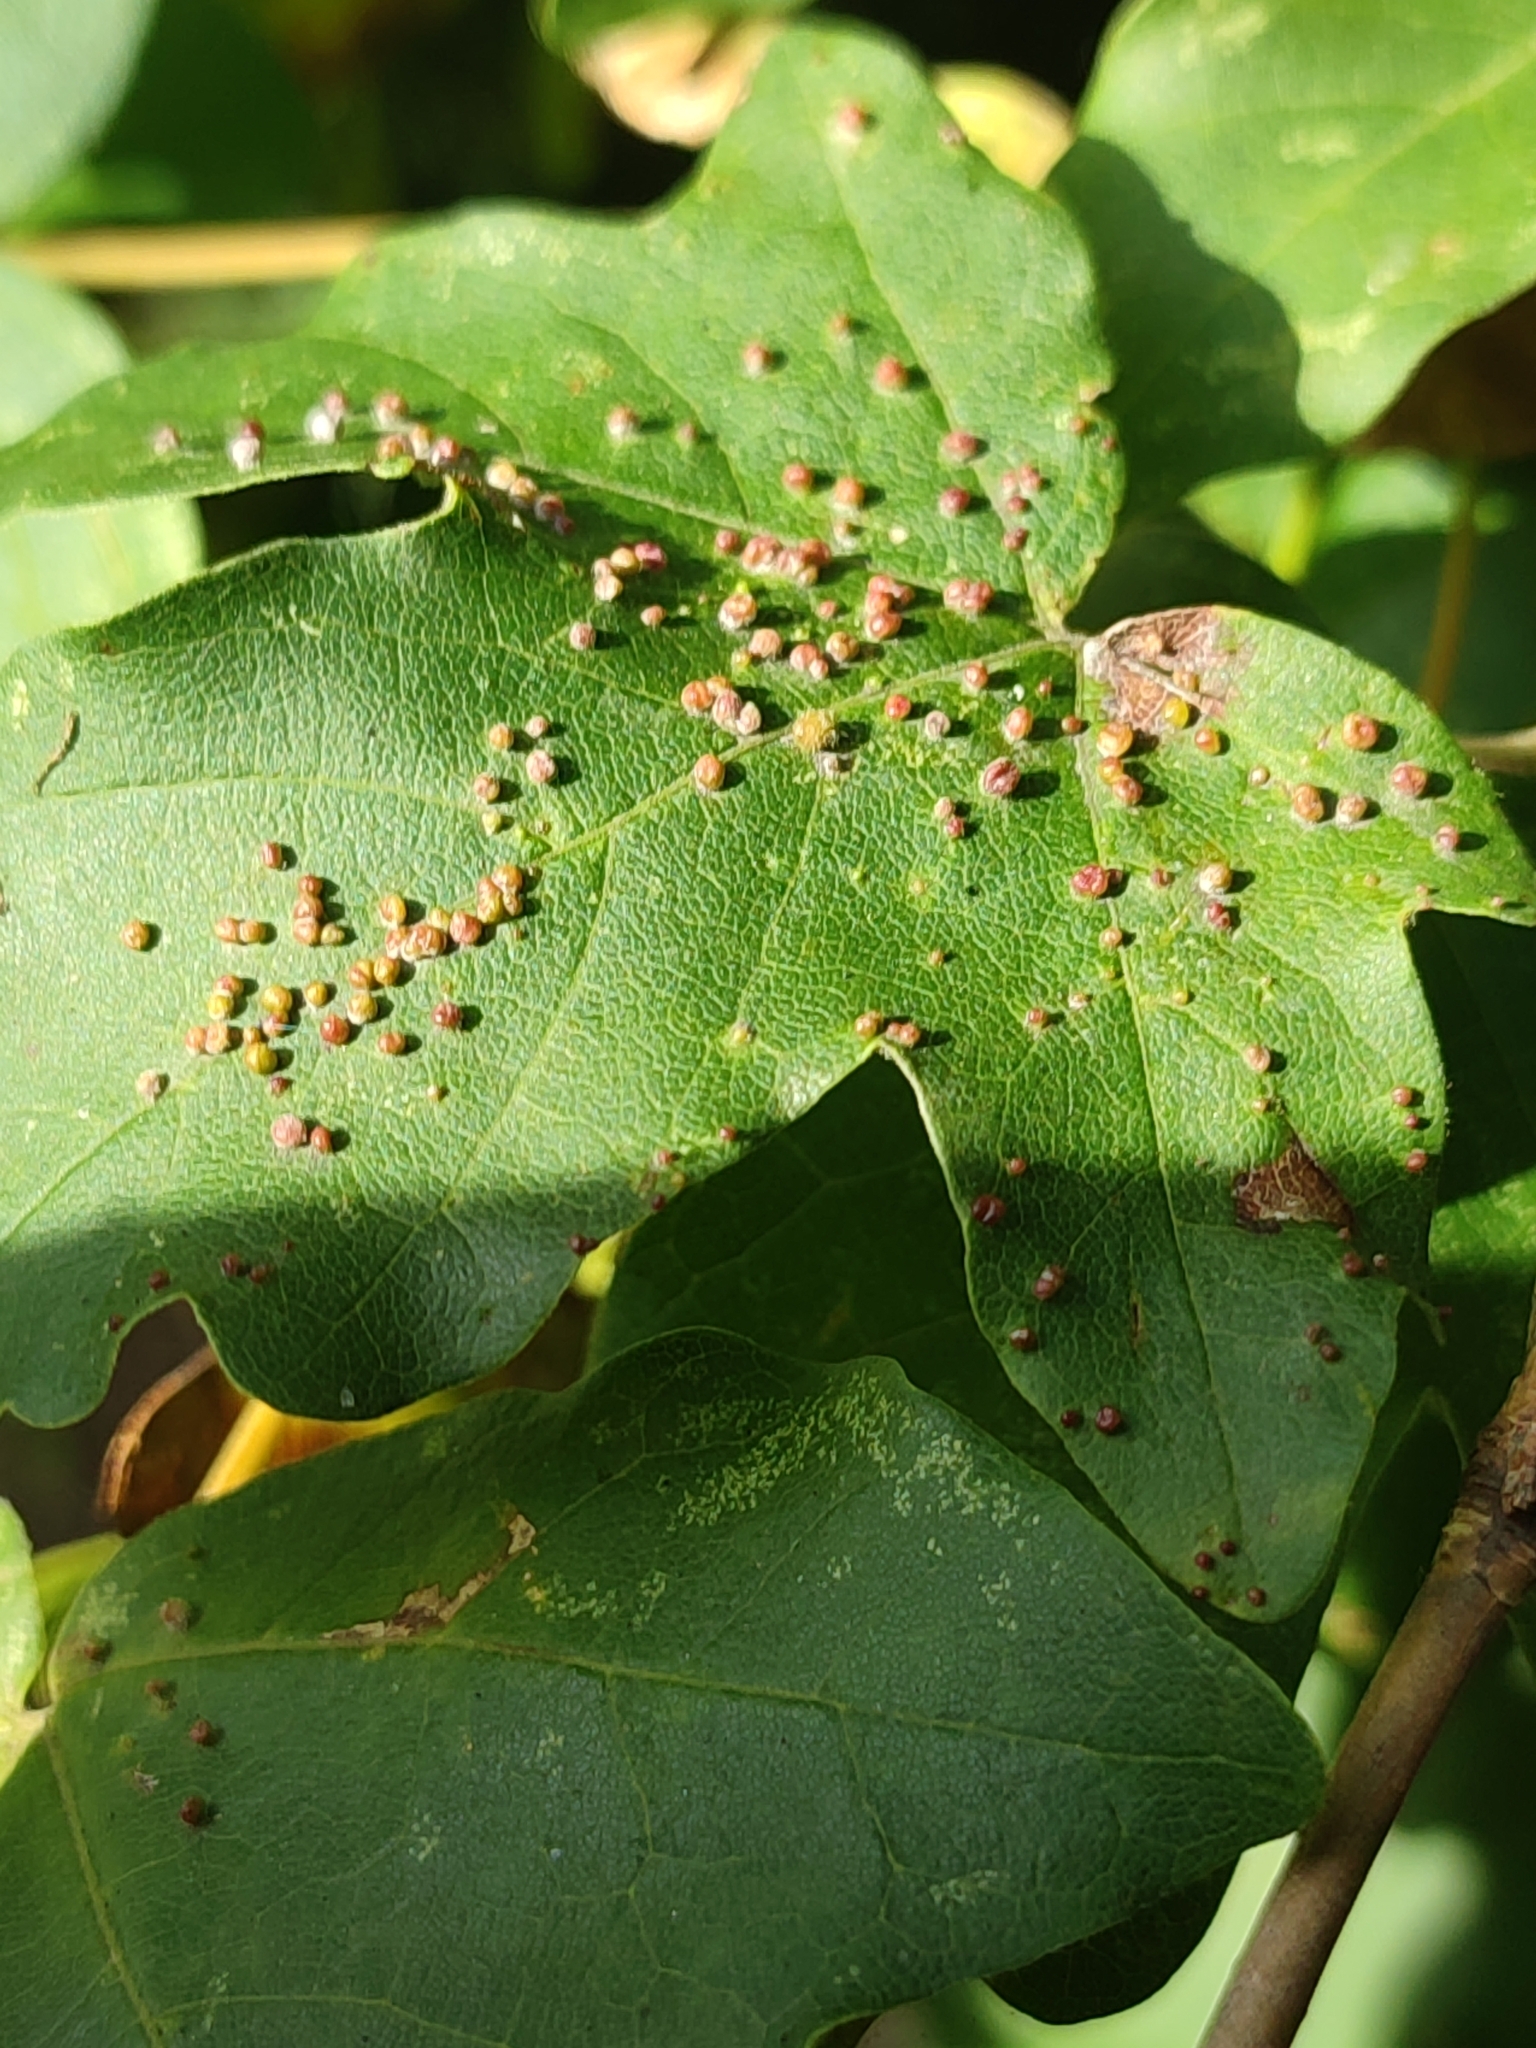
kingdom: Plantae
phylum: Tracheophyta
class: Magnoliopsida
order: Sapindales
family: Sapindaceae
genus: Acer
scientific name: Acer campestre
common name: Field maple
